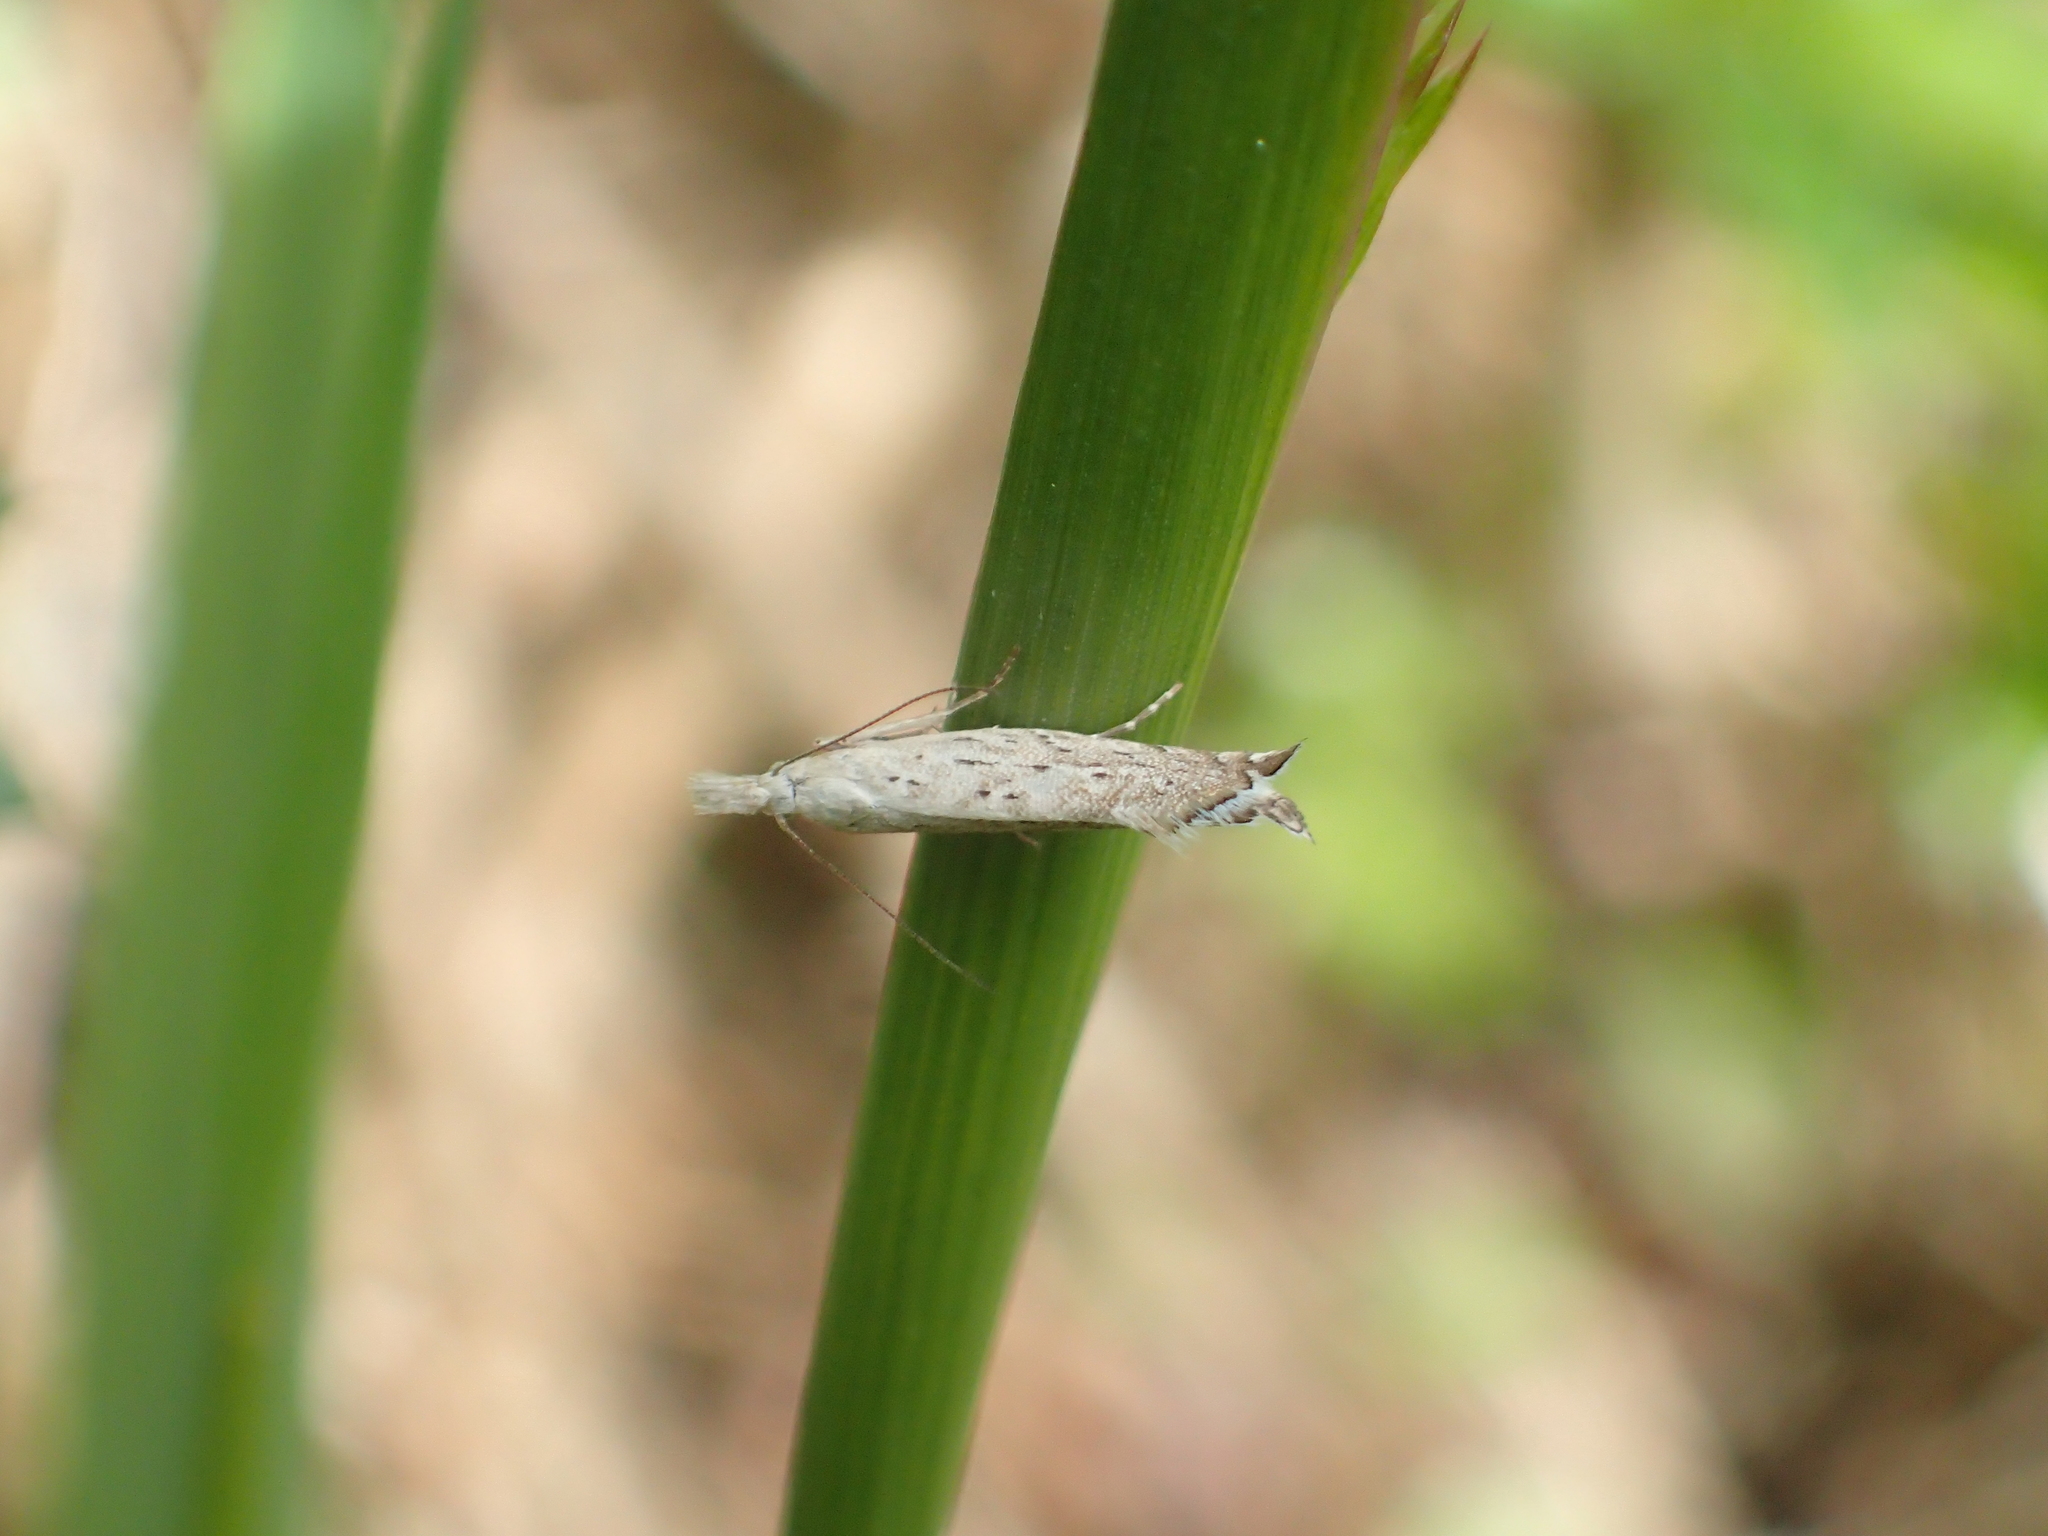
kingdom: Animalia
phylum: Arthropoda
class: Insecta
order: Lepidoptera
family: Glyphipterigidae
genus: Glyphipterix
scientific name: Glyphipterix achlyoessa
